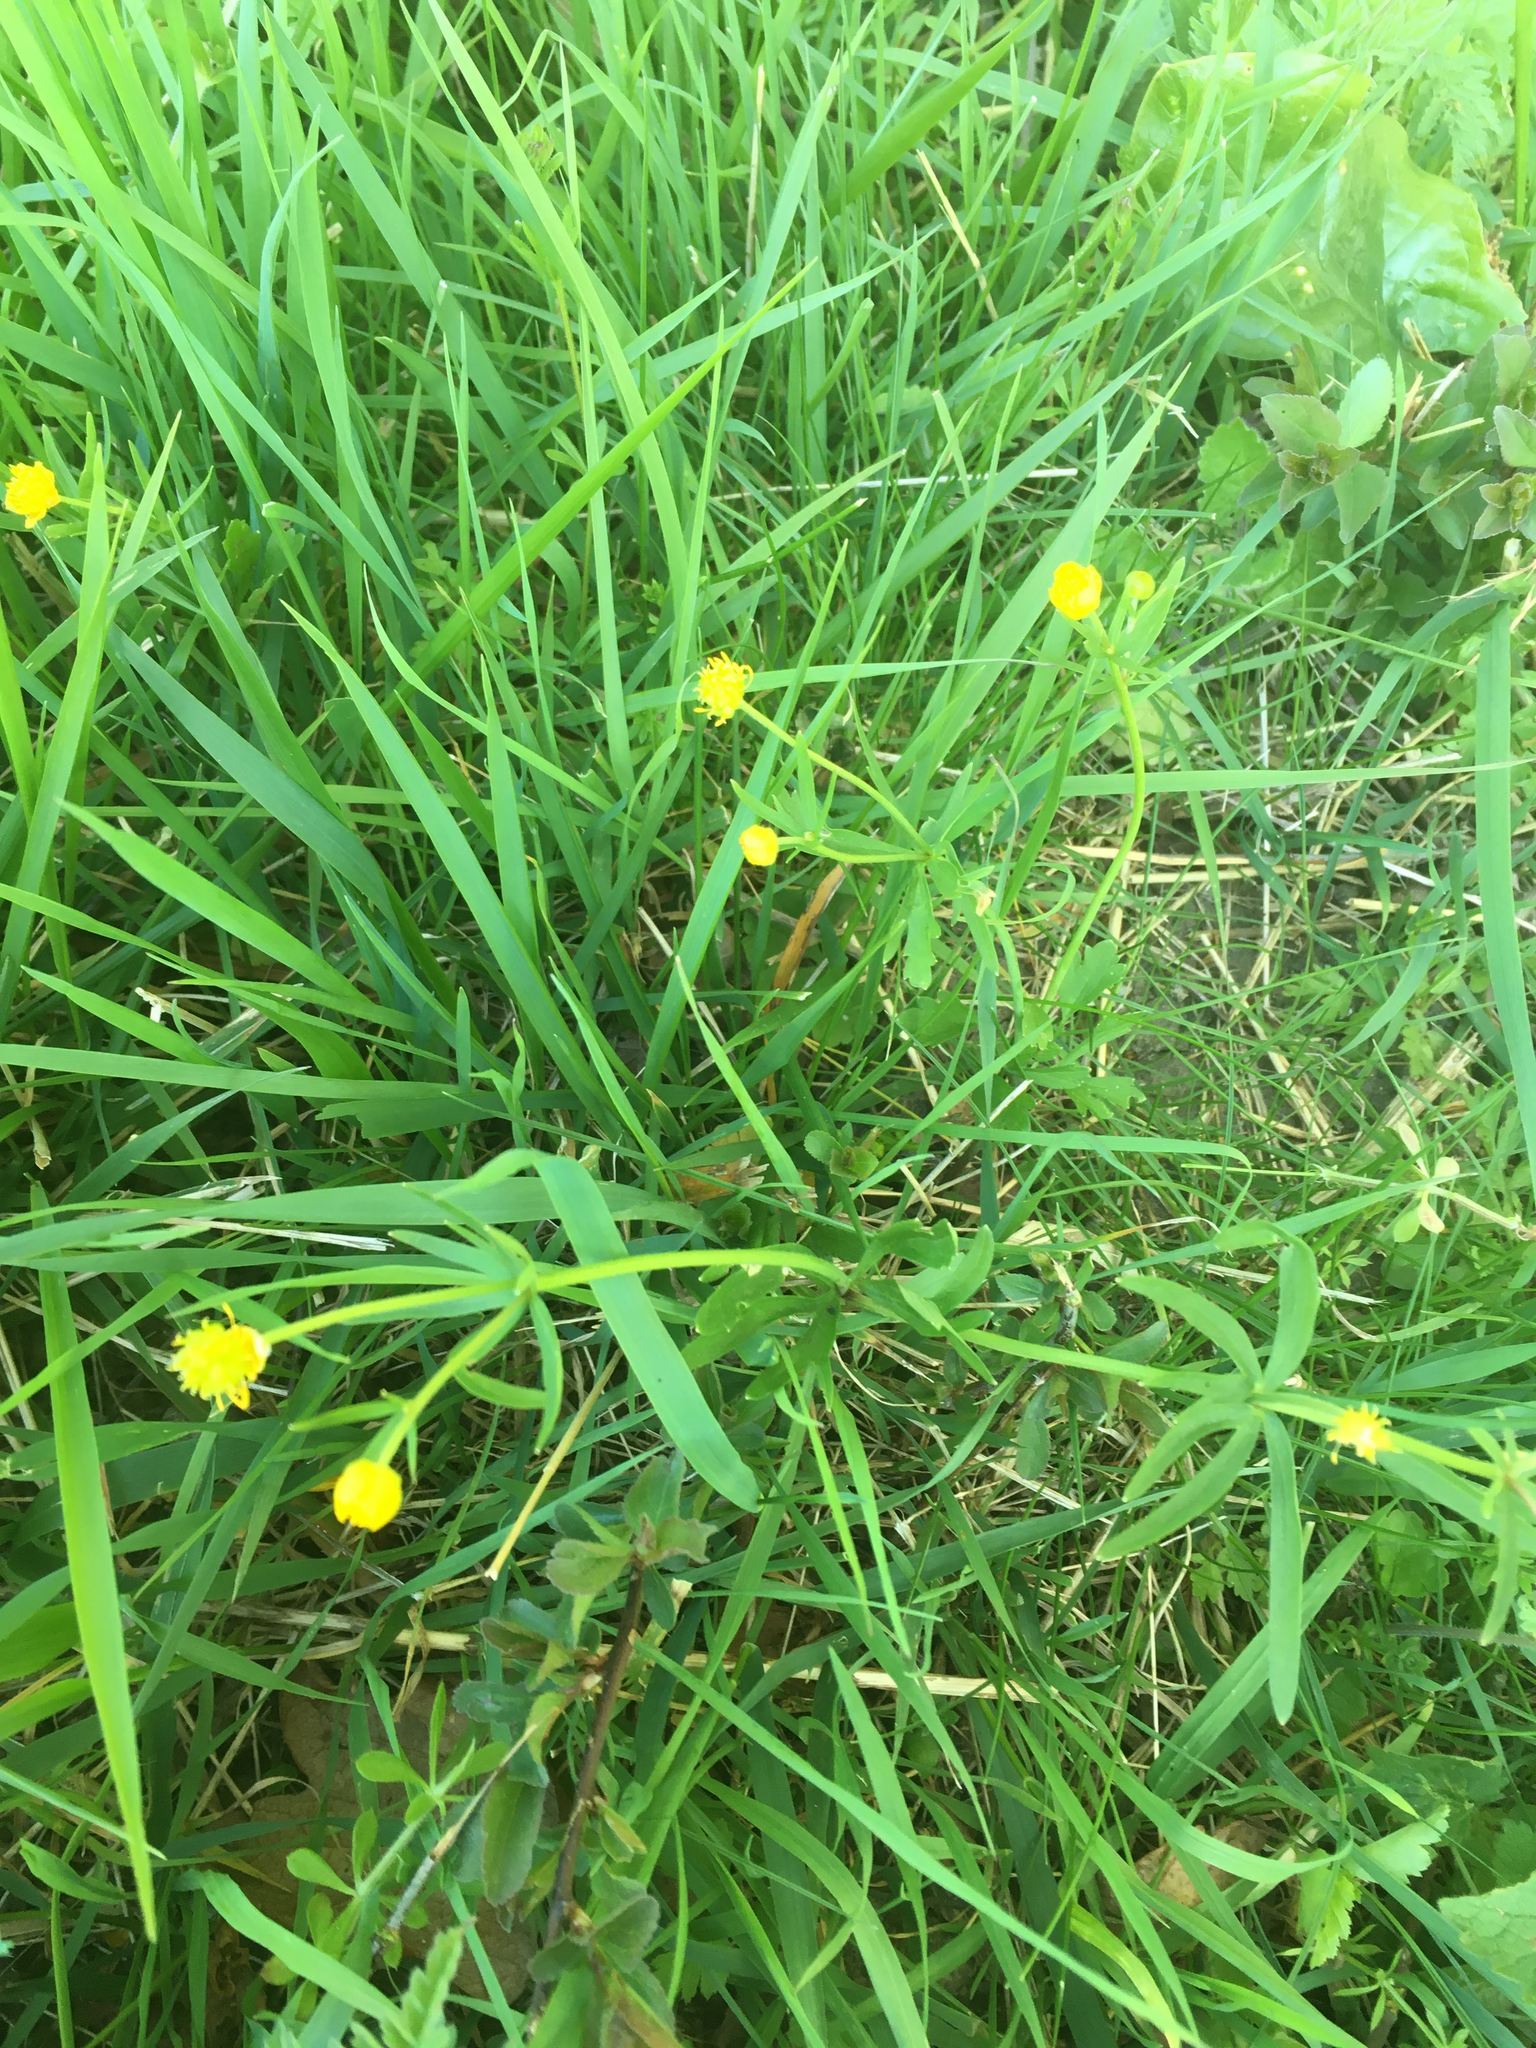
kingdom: Plantae
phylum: Tracheophyta
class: Magnoliopsida
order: Ranunculales
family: Ranunculaceae
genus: Ranunculus
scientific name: Ranunculus auricomus
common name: Goldilocks buttercup
